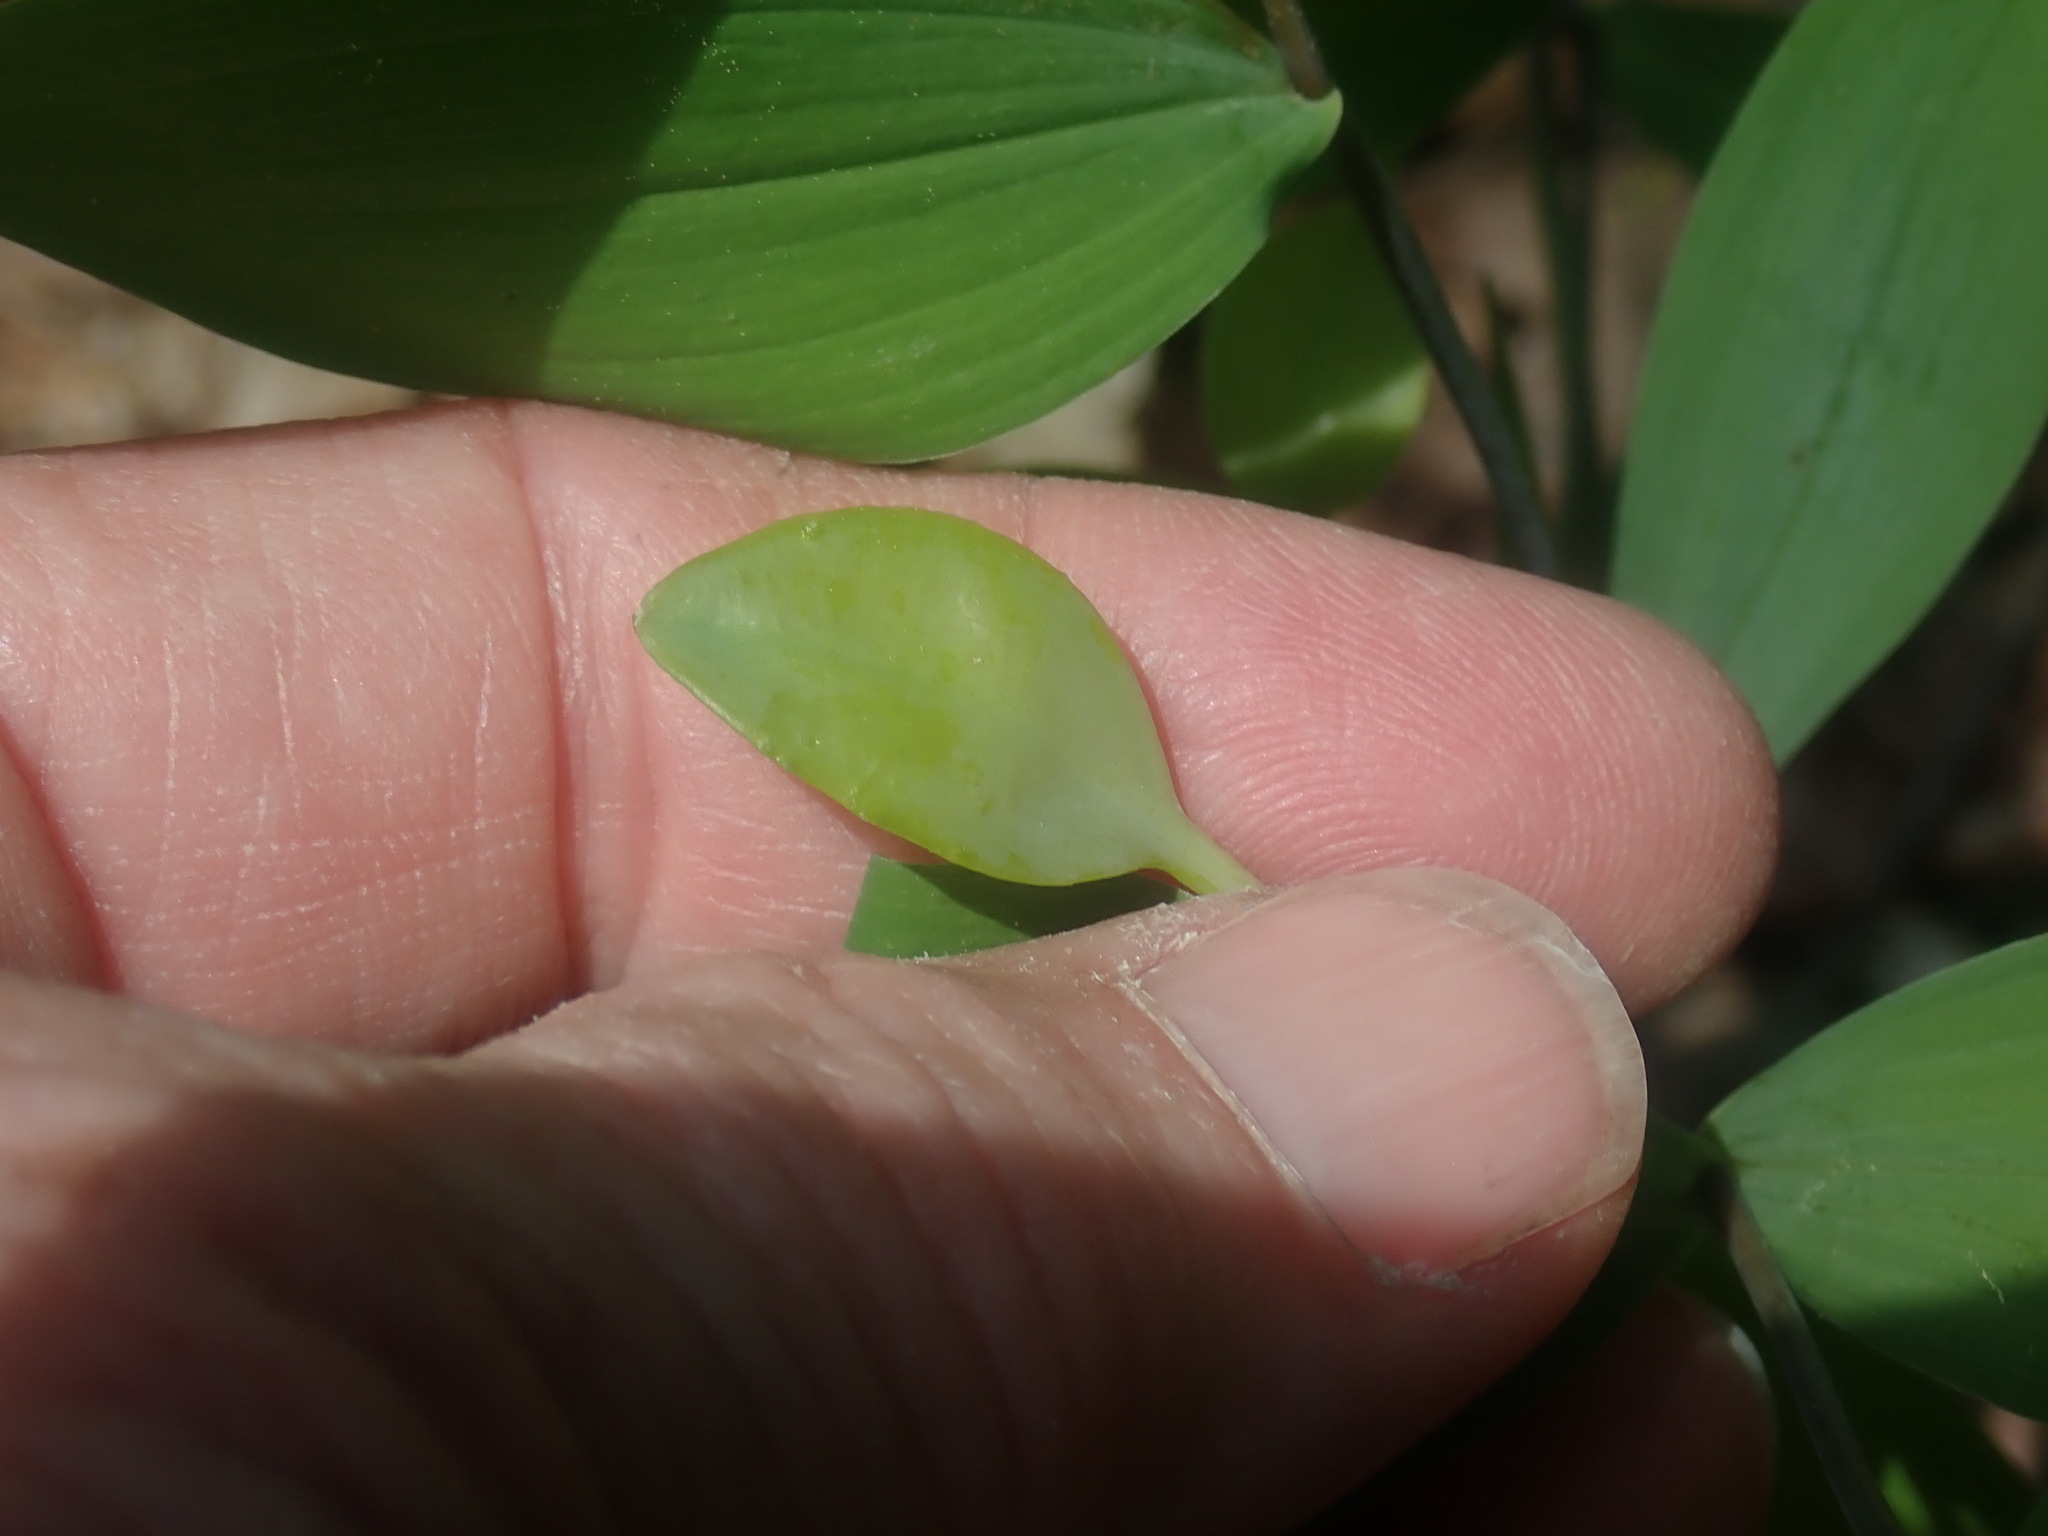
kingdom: Plantae
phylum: Tracheophyta
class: Liliopsida
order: Liliales
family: Colchicaceae
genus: Uvularia
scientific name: Uvularia sessilifolia
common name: Straw-lily
